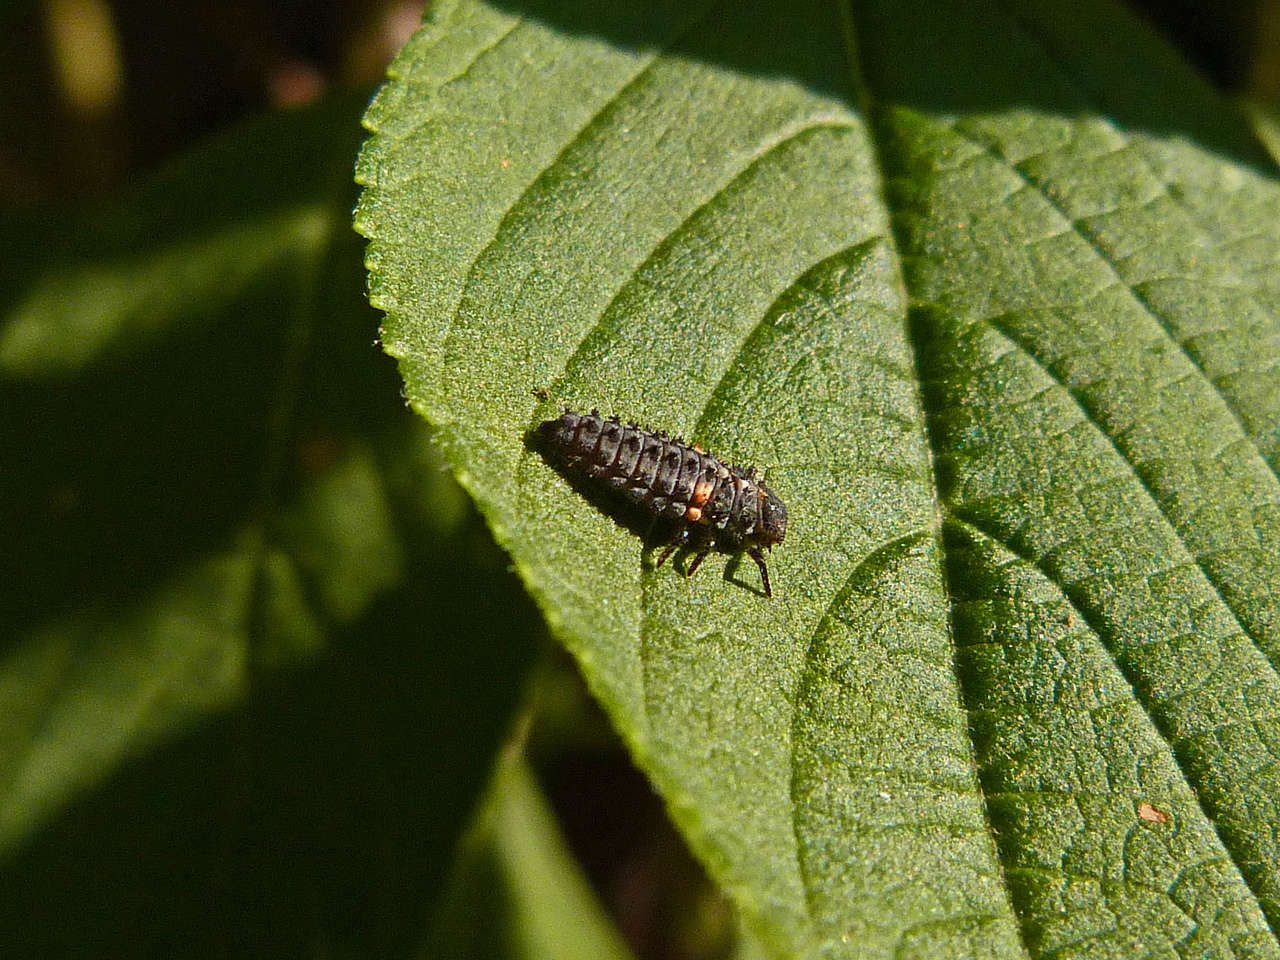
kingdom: Animalia
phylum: Arthropoda
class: Insecta
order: Coleoptera
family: Coccinellidae
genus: Hippodamia
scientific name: Hippodamia variegata
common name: Ladybird beetle
